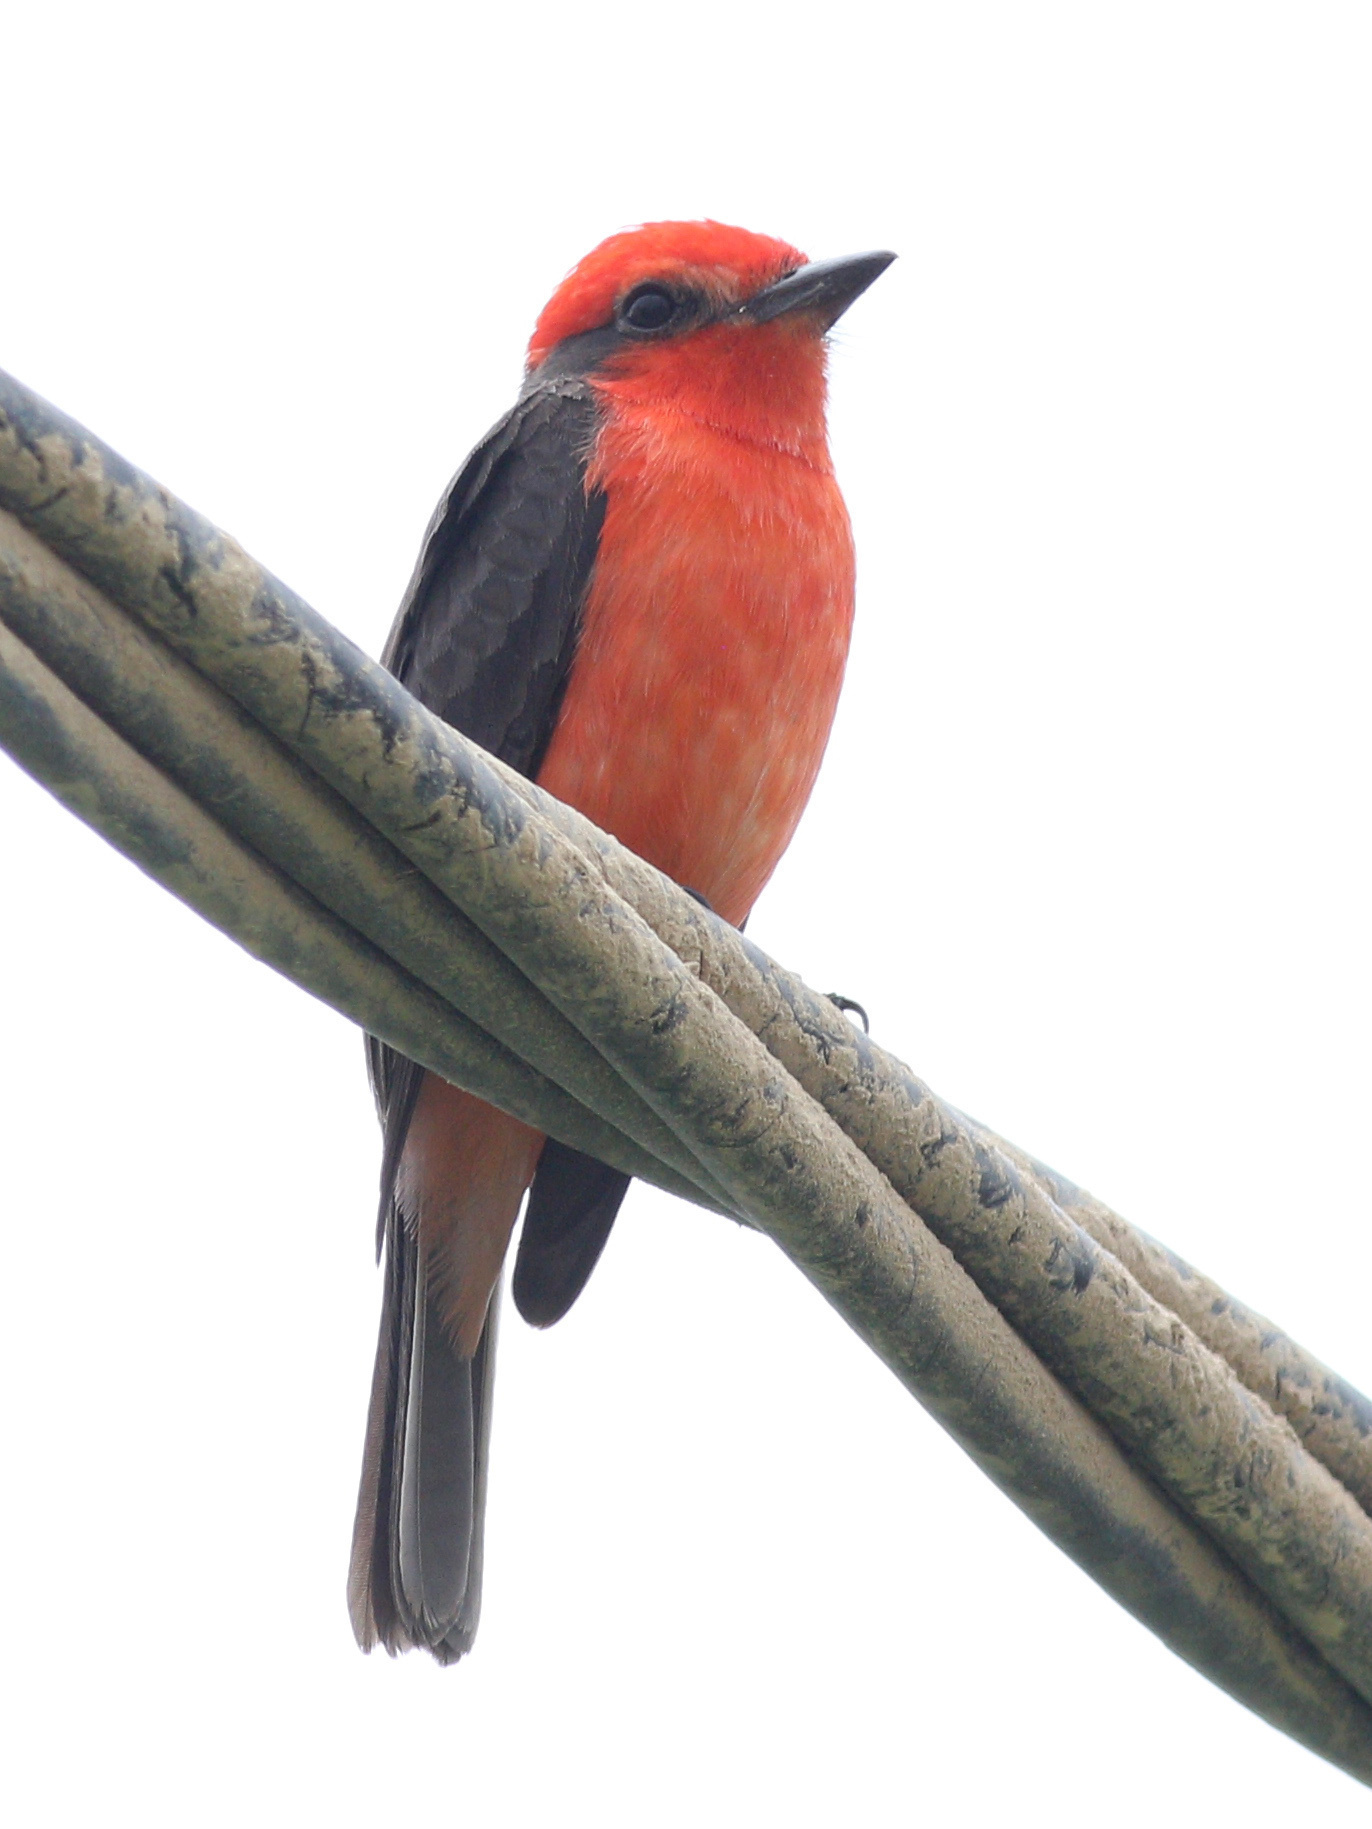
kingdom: Animalia
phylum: Chordata
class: Aves
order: Passeriformes
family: Tyrannidae
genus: Pyrocephalus
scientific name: Pyrocephalus rubinus
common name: Vermilion flycatcher
